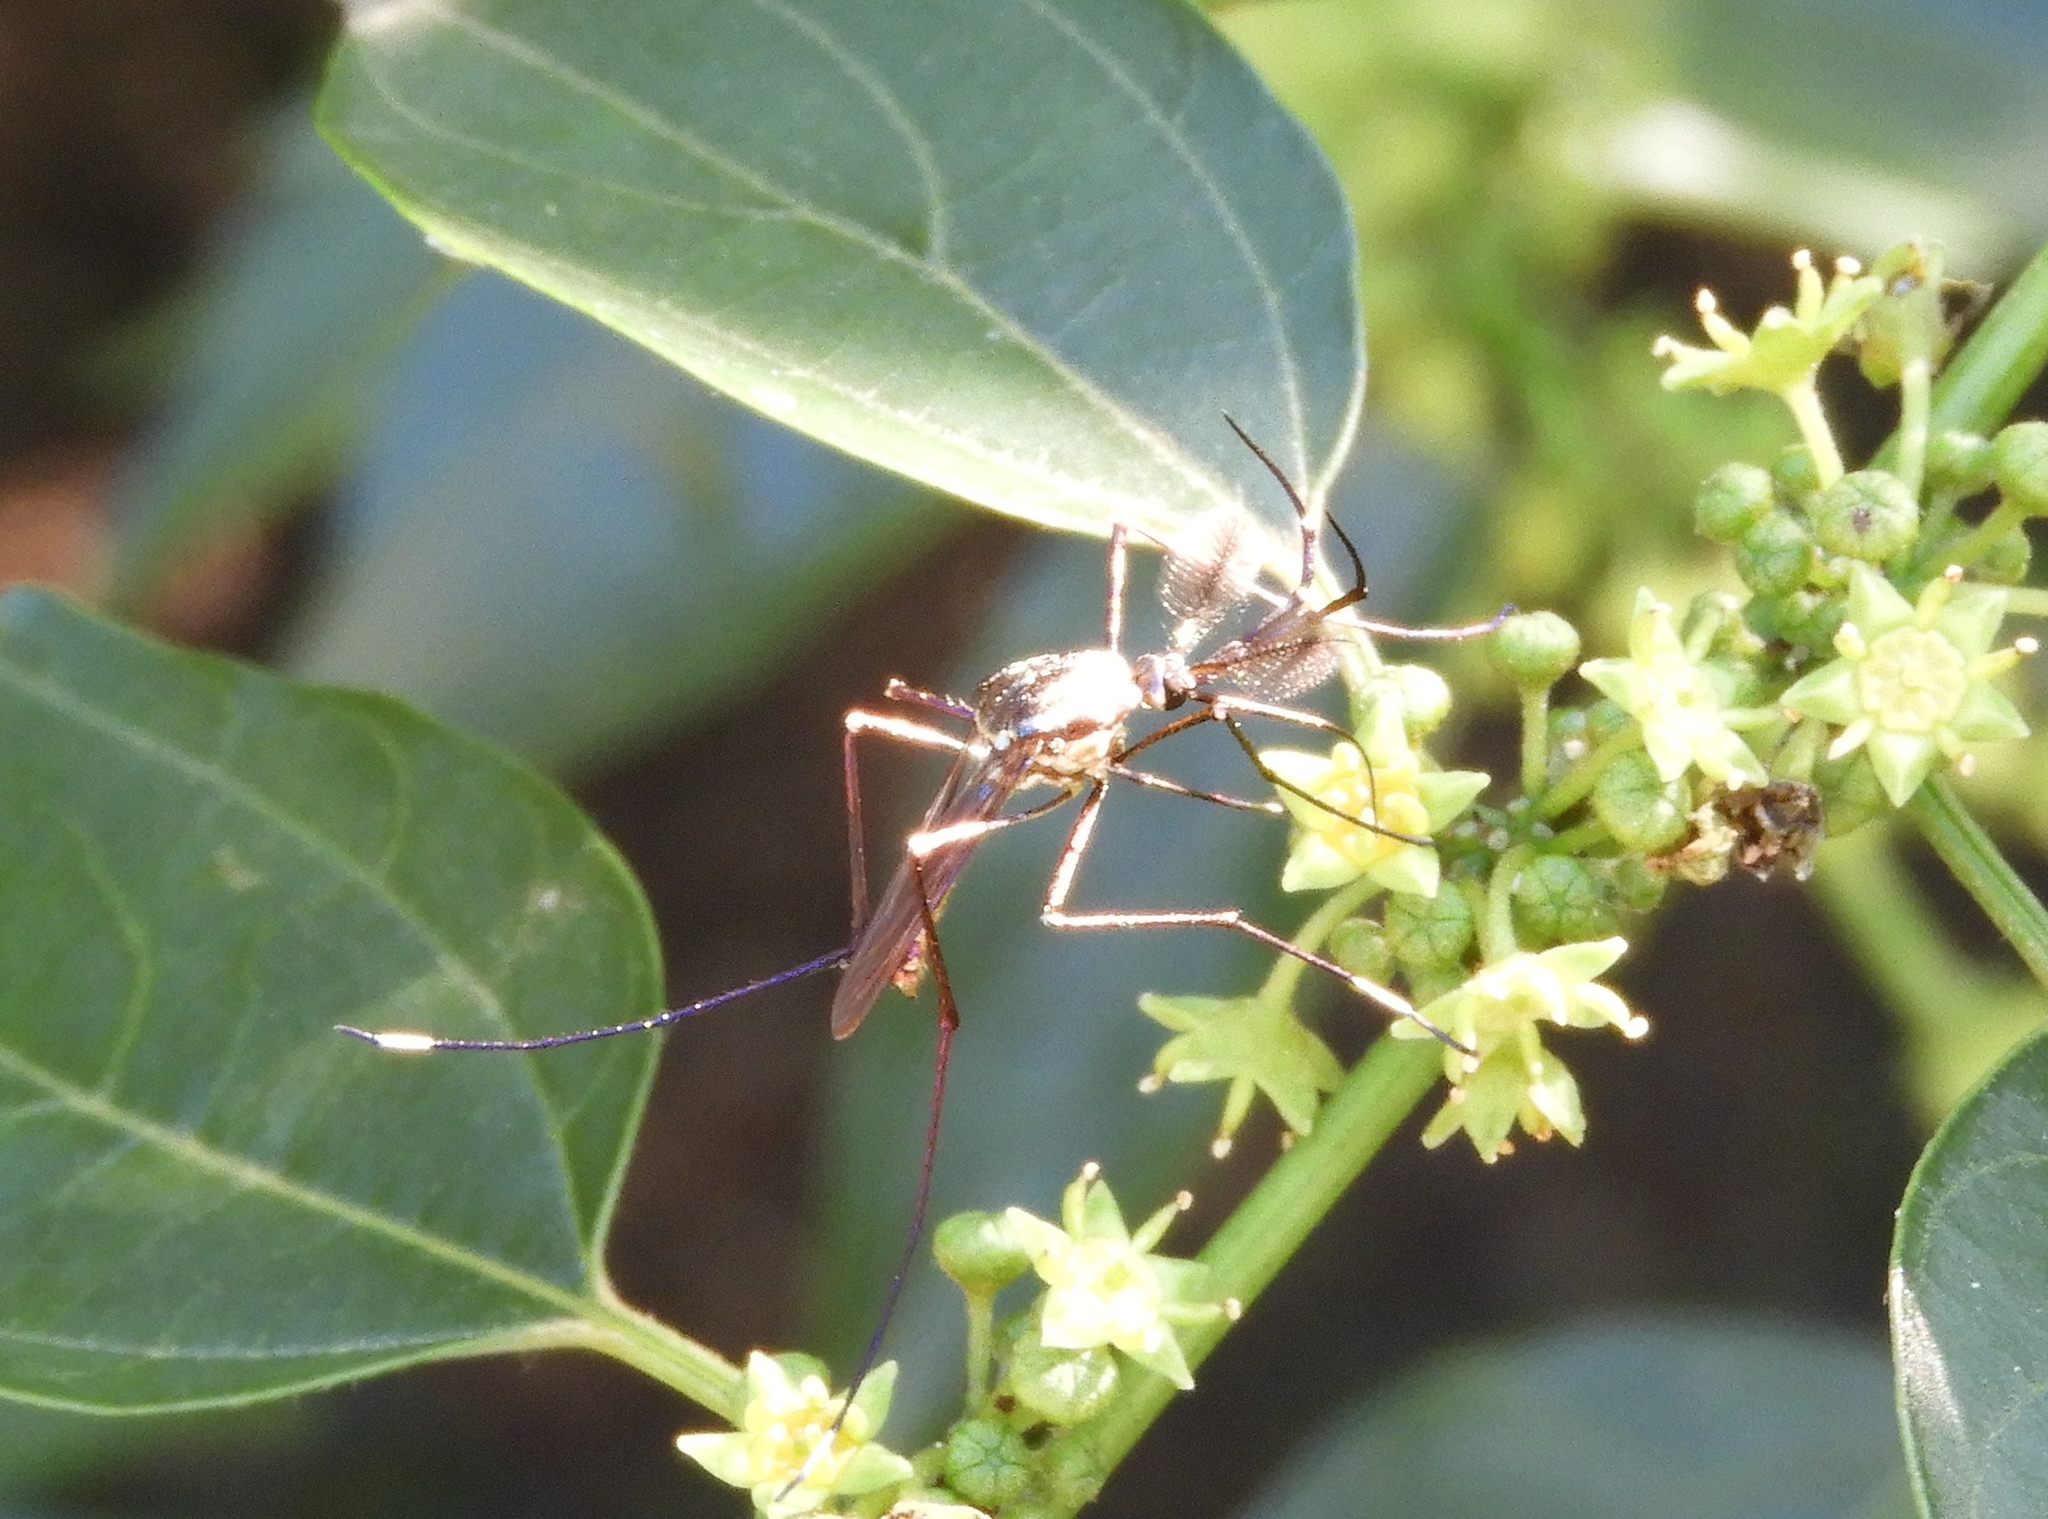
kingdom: Animalia
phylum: Arthropoda
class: Insecta
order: Diptera
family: Culicidae
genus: Toxorhynchites
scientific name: Toxorhynchites rutilus
